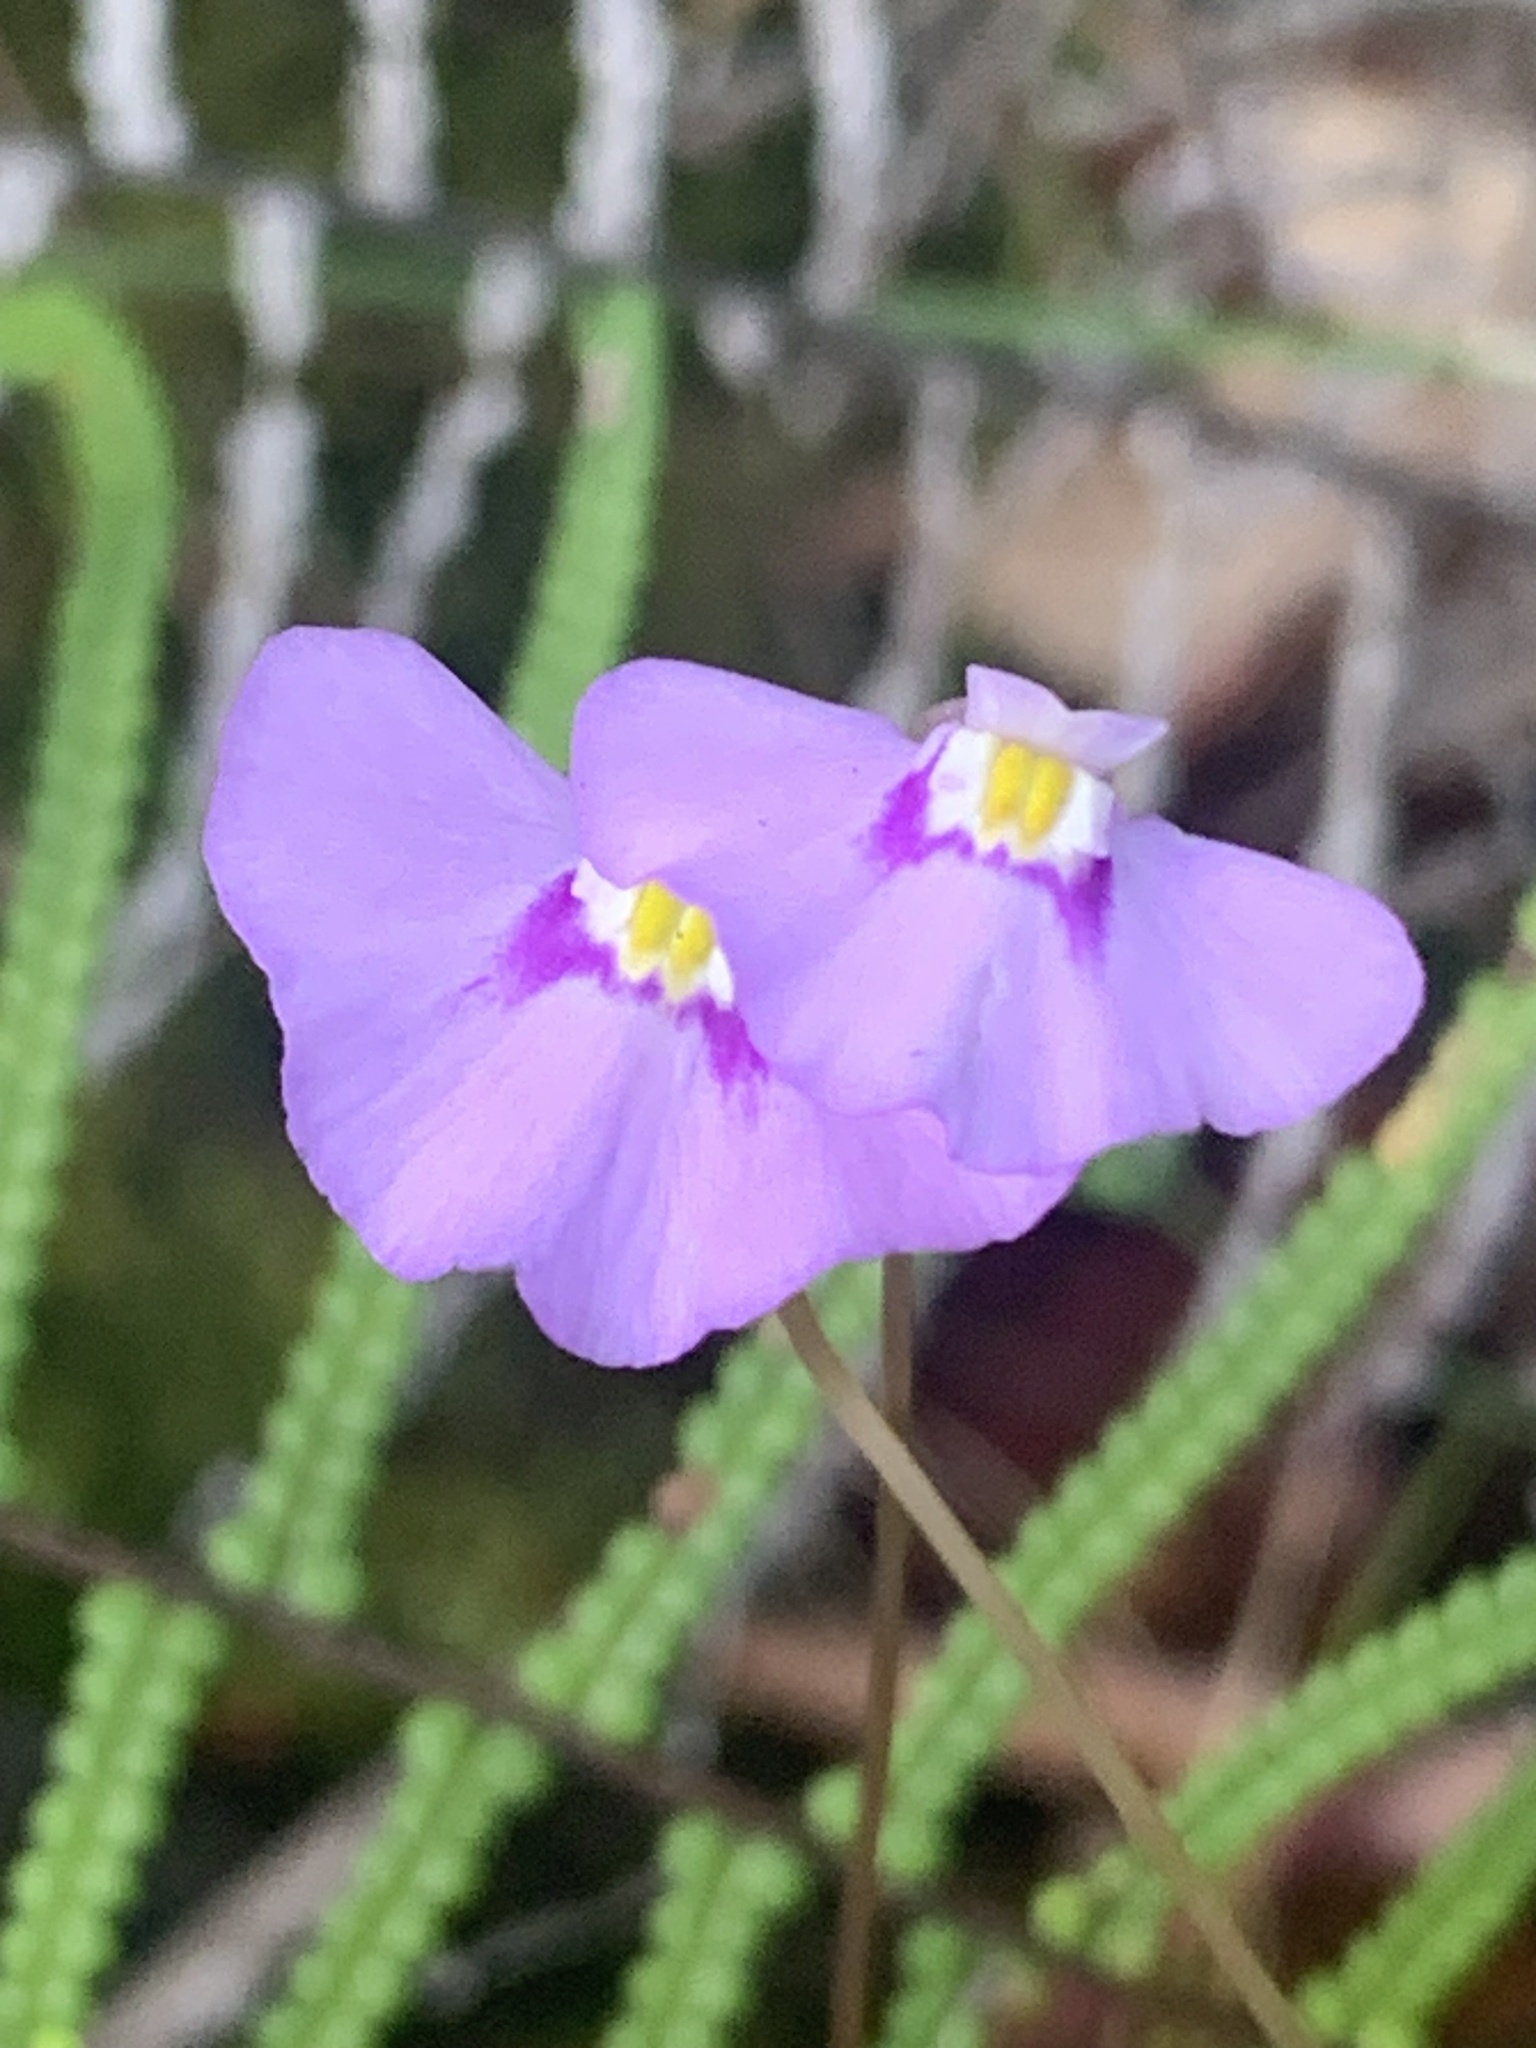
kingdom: Plantae
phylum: Tracheophyta
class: Magnoliopsida
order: Lamiales
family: Lentibulariaceae
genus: Utricularia
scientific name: Utricularia uniflora
